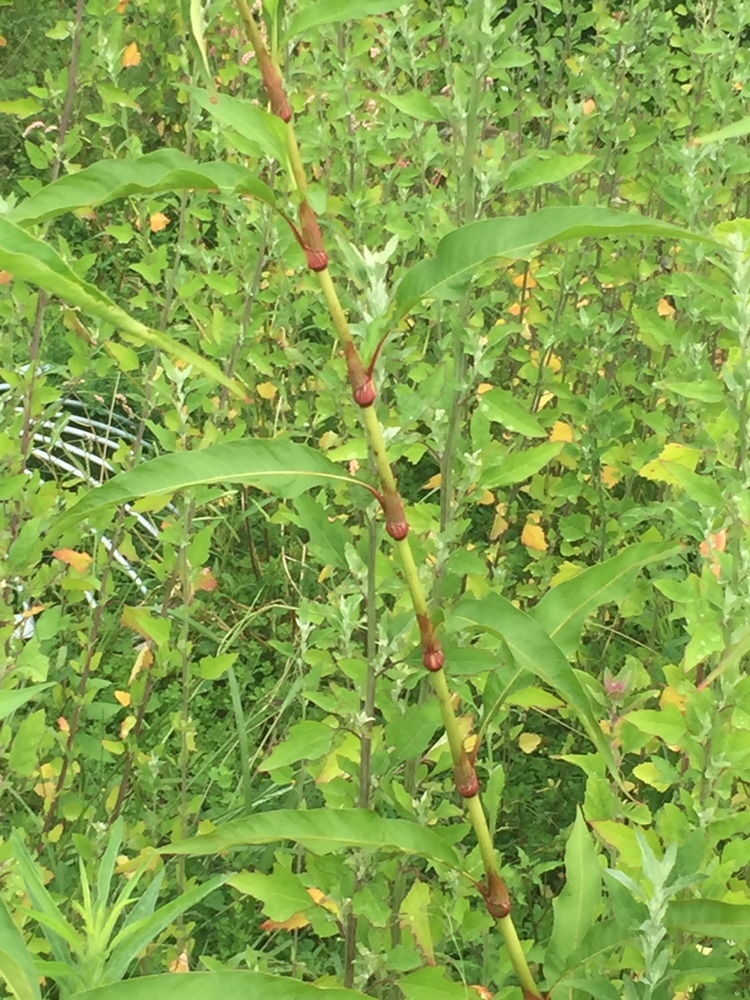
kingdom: Plantae
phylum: Tracheophyta
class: Magnoliopsida
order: Caryophyllales
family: Polygonaceae
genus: Persicaria
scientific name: Persicaria lapathifolia
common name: Curlytop knotweed
